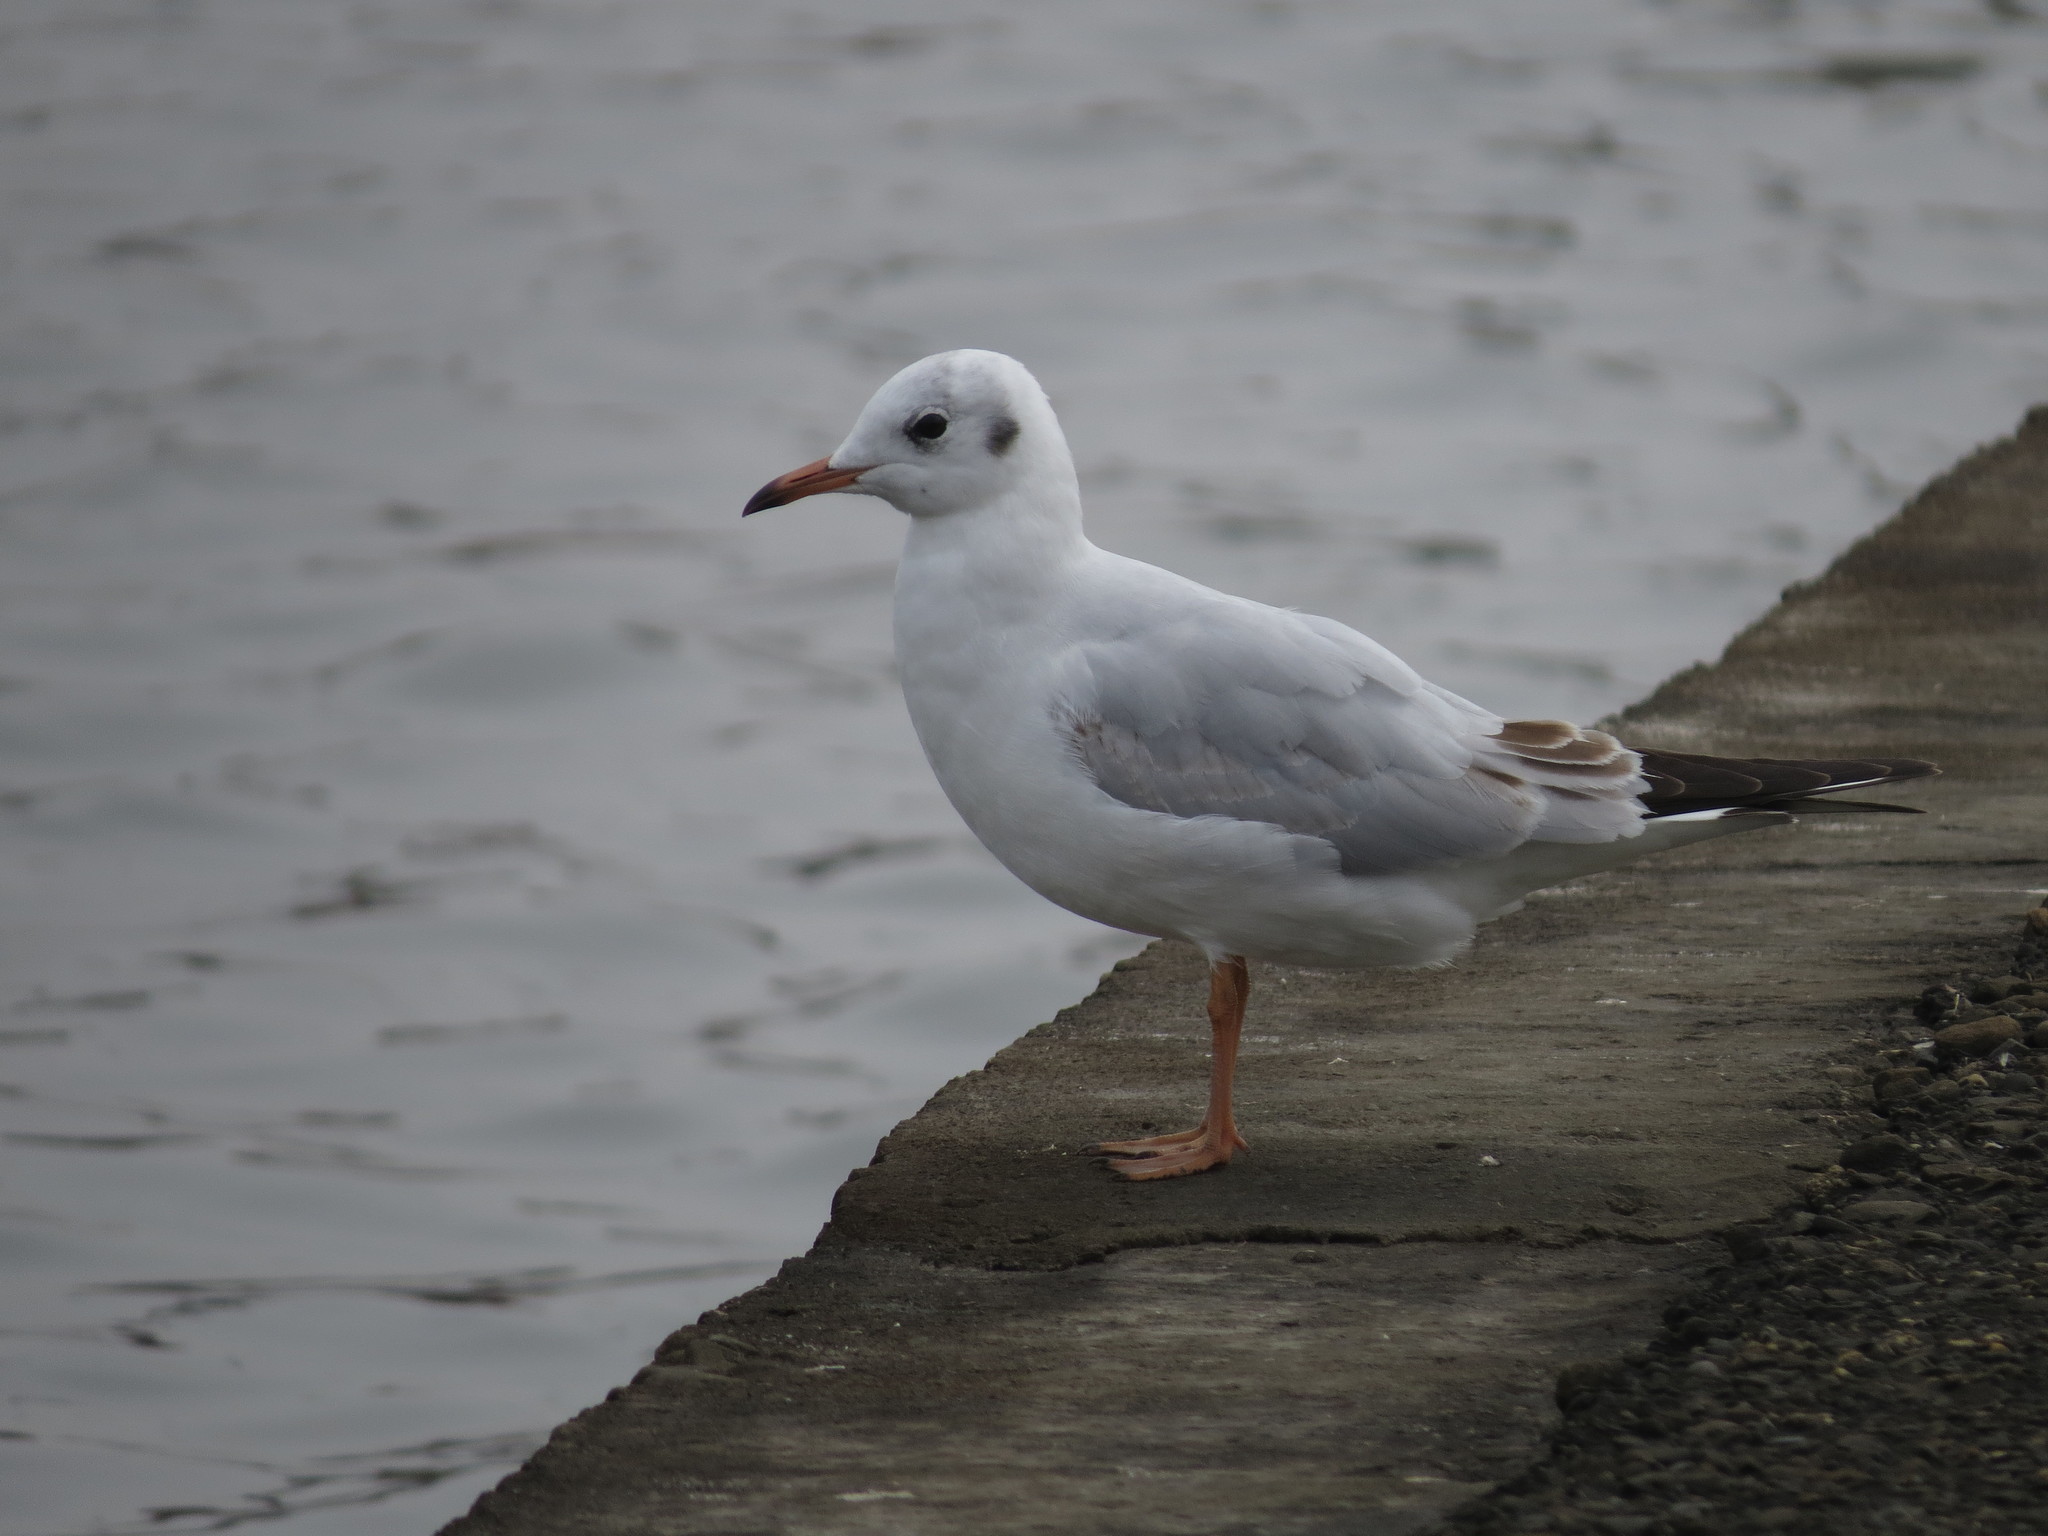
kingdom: Animalia
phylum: Chordata
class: Aves
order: Charadriiformes
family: Laridae
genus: Chroicocephalus
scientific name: Chroicocephalus ridibundus
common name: Black-headed gull
